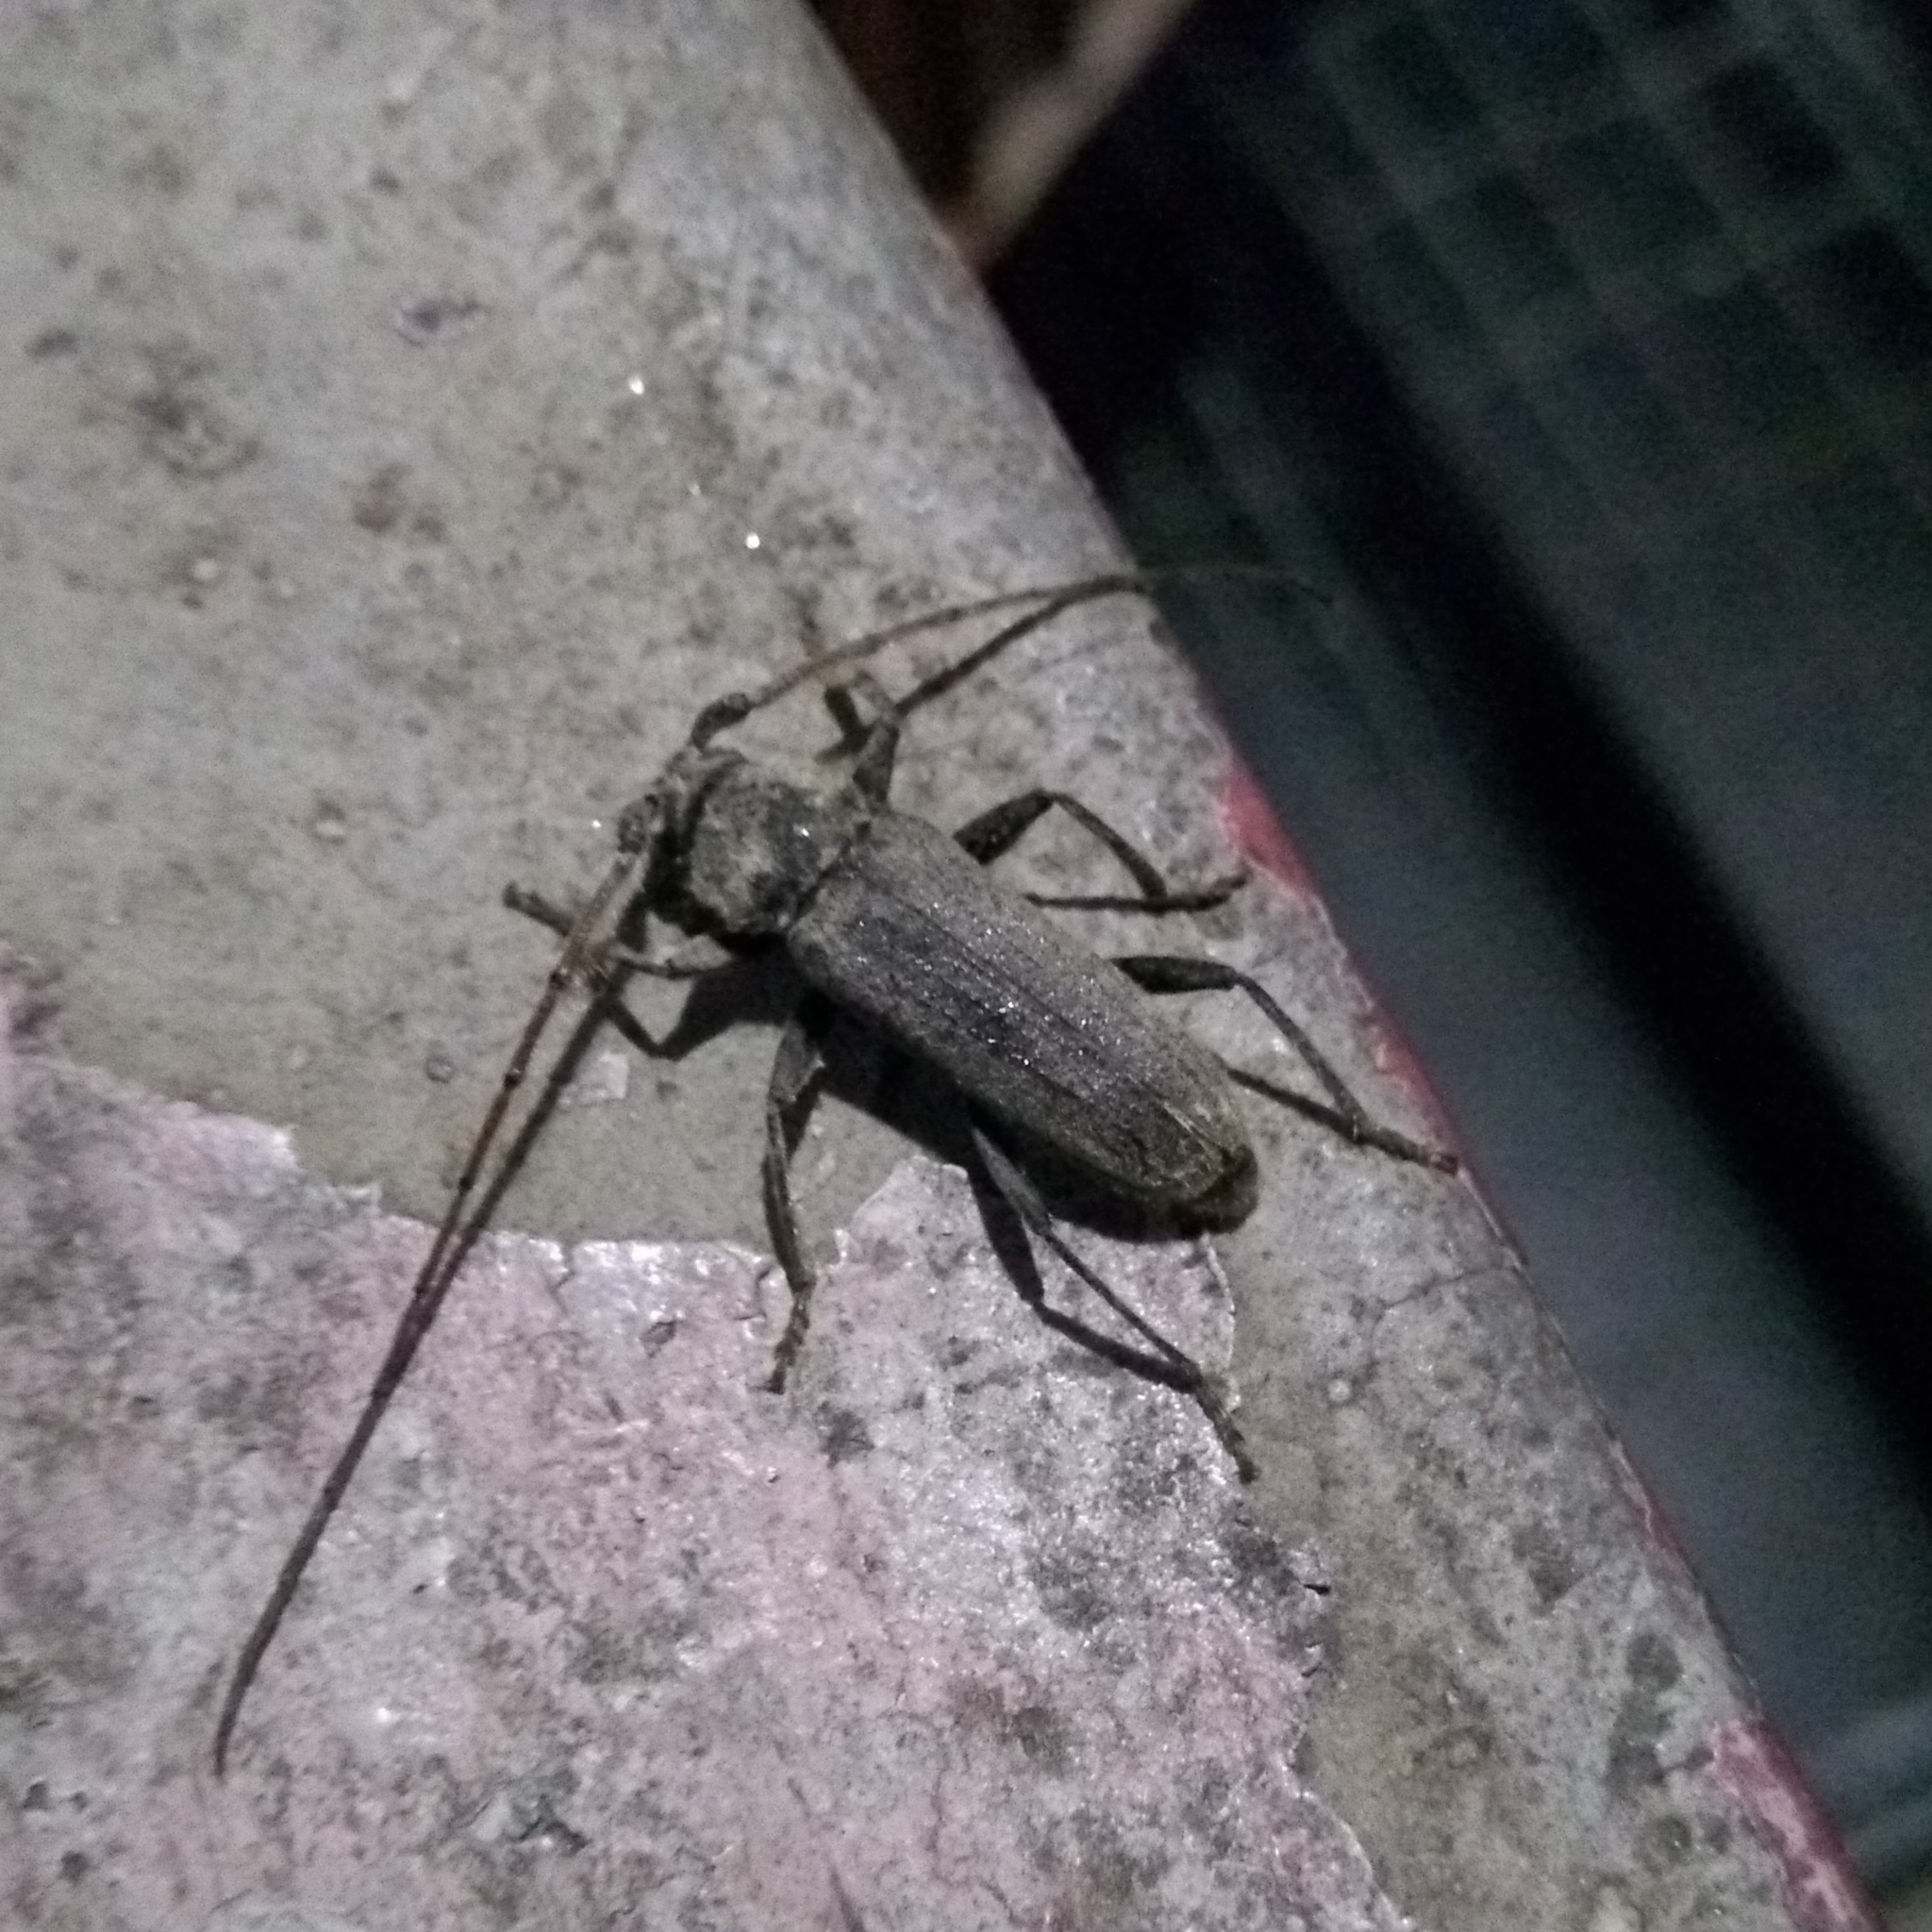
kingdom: Animalia
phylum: Arthropoda
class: Insecta
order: Coleoptera
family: Cerambycidae
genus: Stromatium
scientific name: Stromatium barbatum
